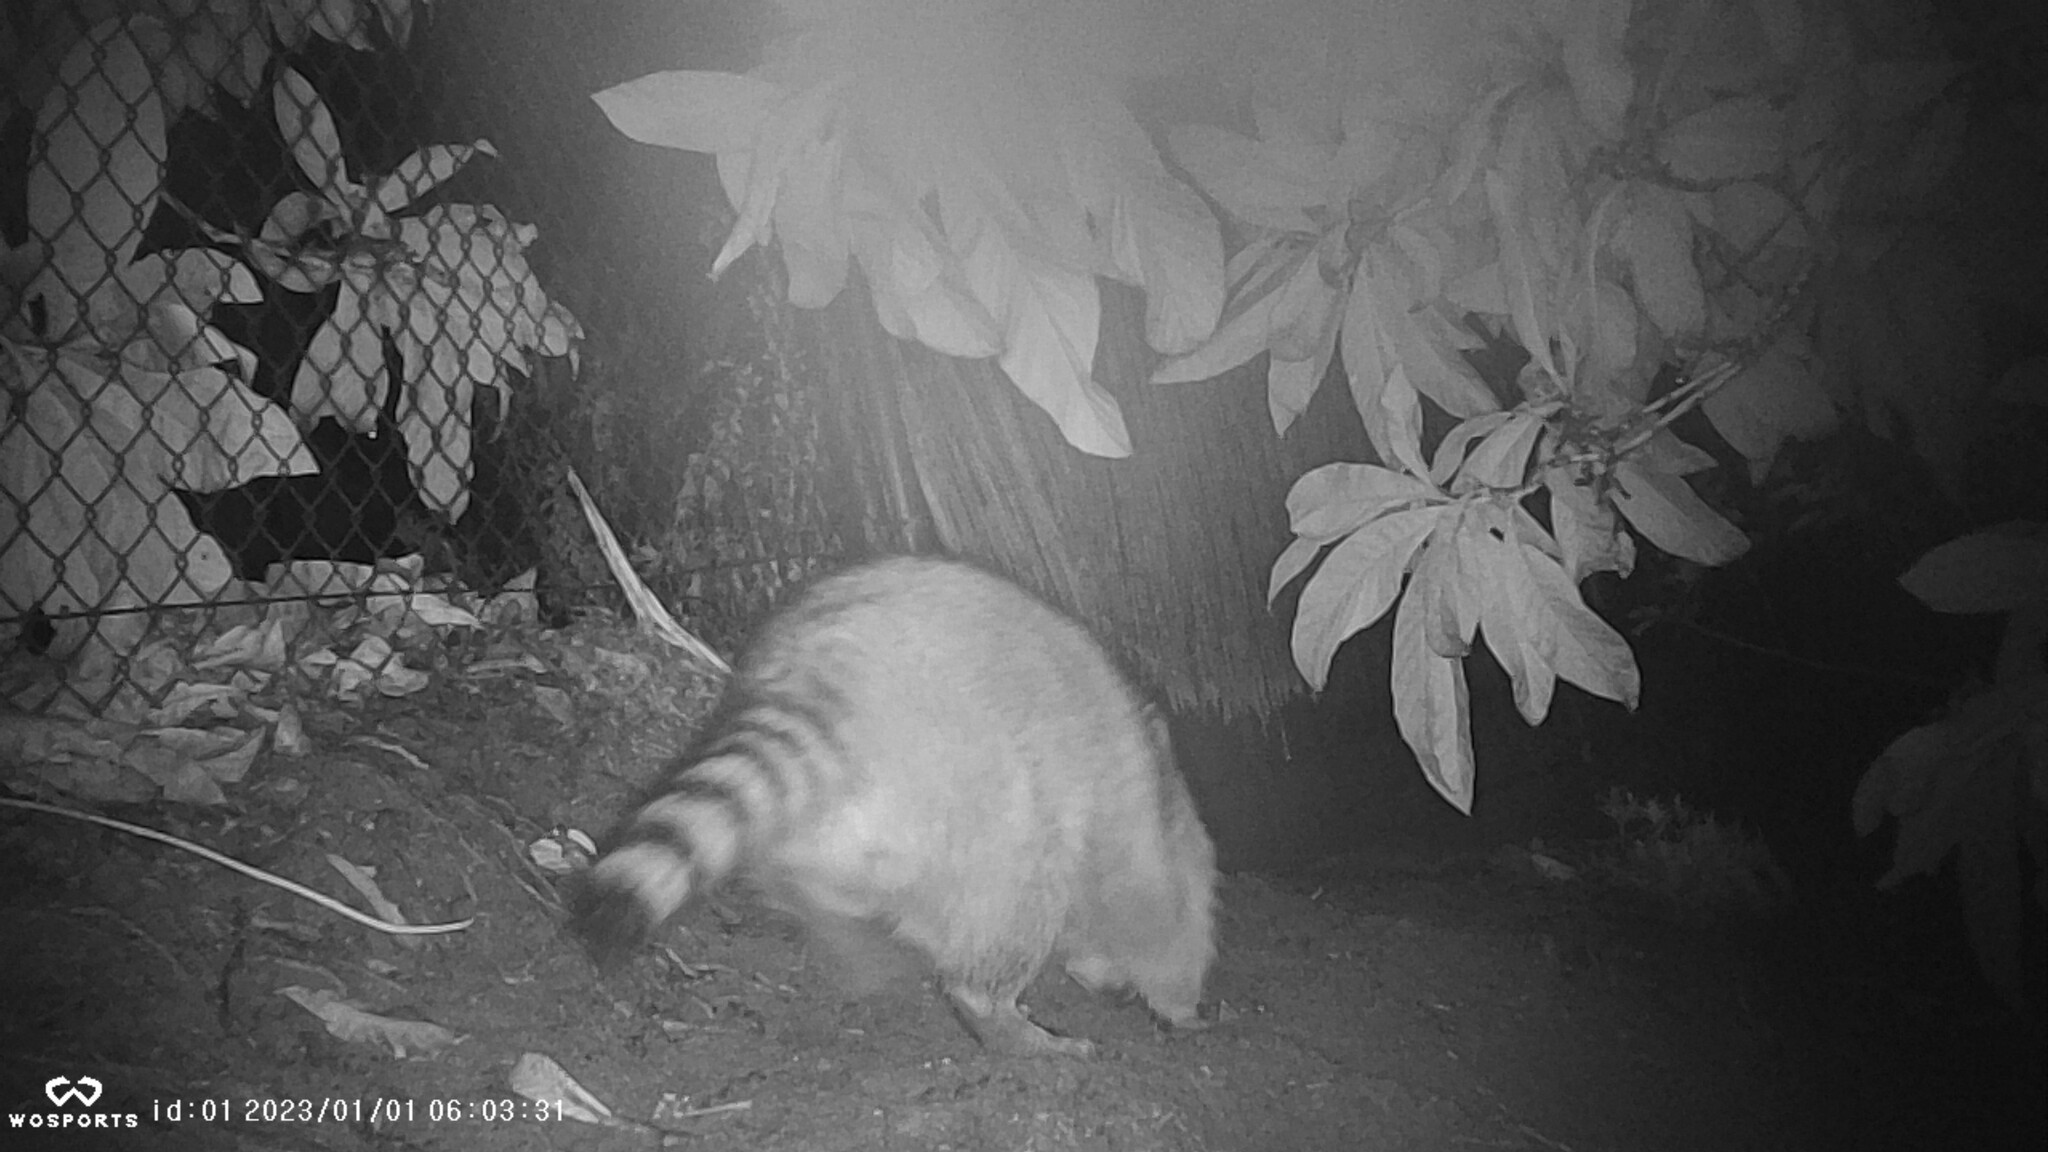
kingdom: Animalia
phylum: Chordata
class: Mammalia
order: Carnivora
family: Procyonidae
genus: Procyon
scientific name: Procyon lotor
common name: Raccoon
